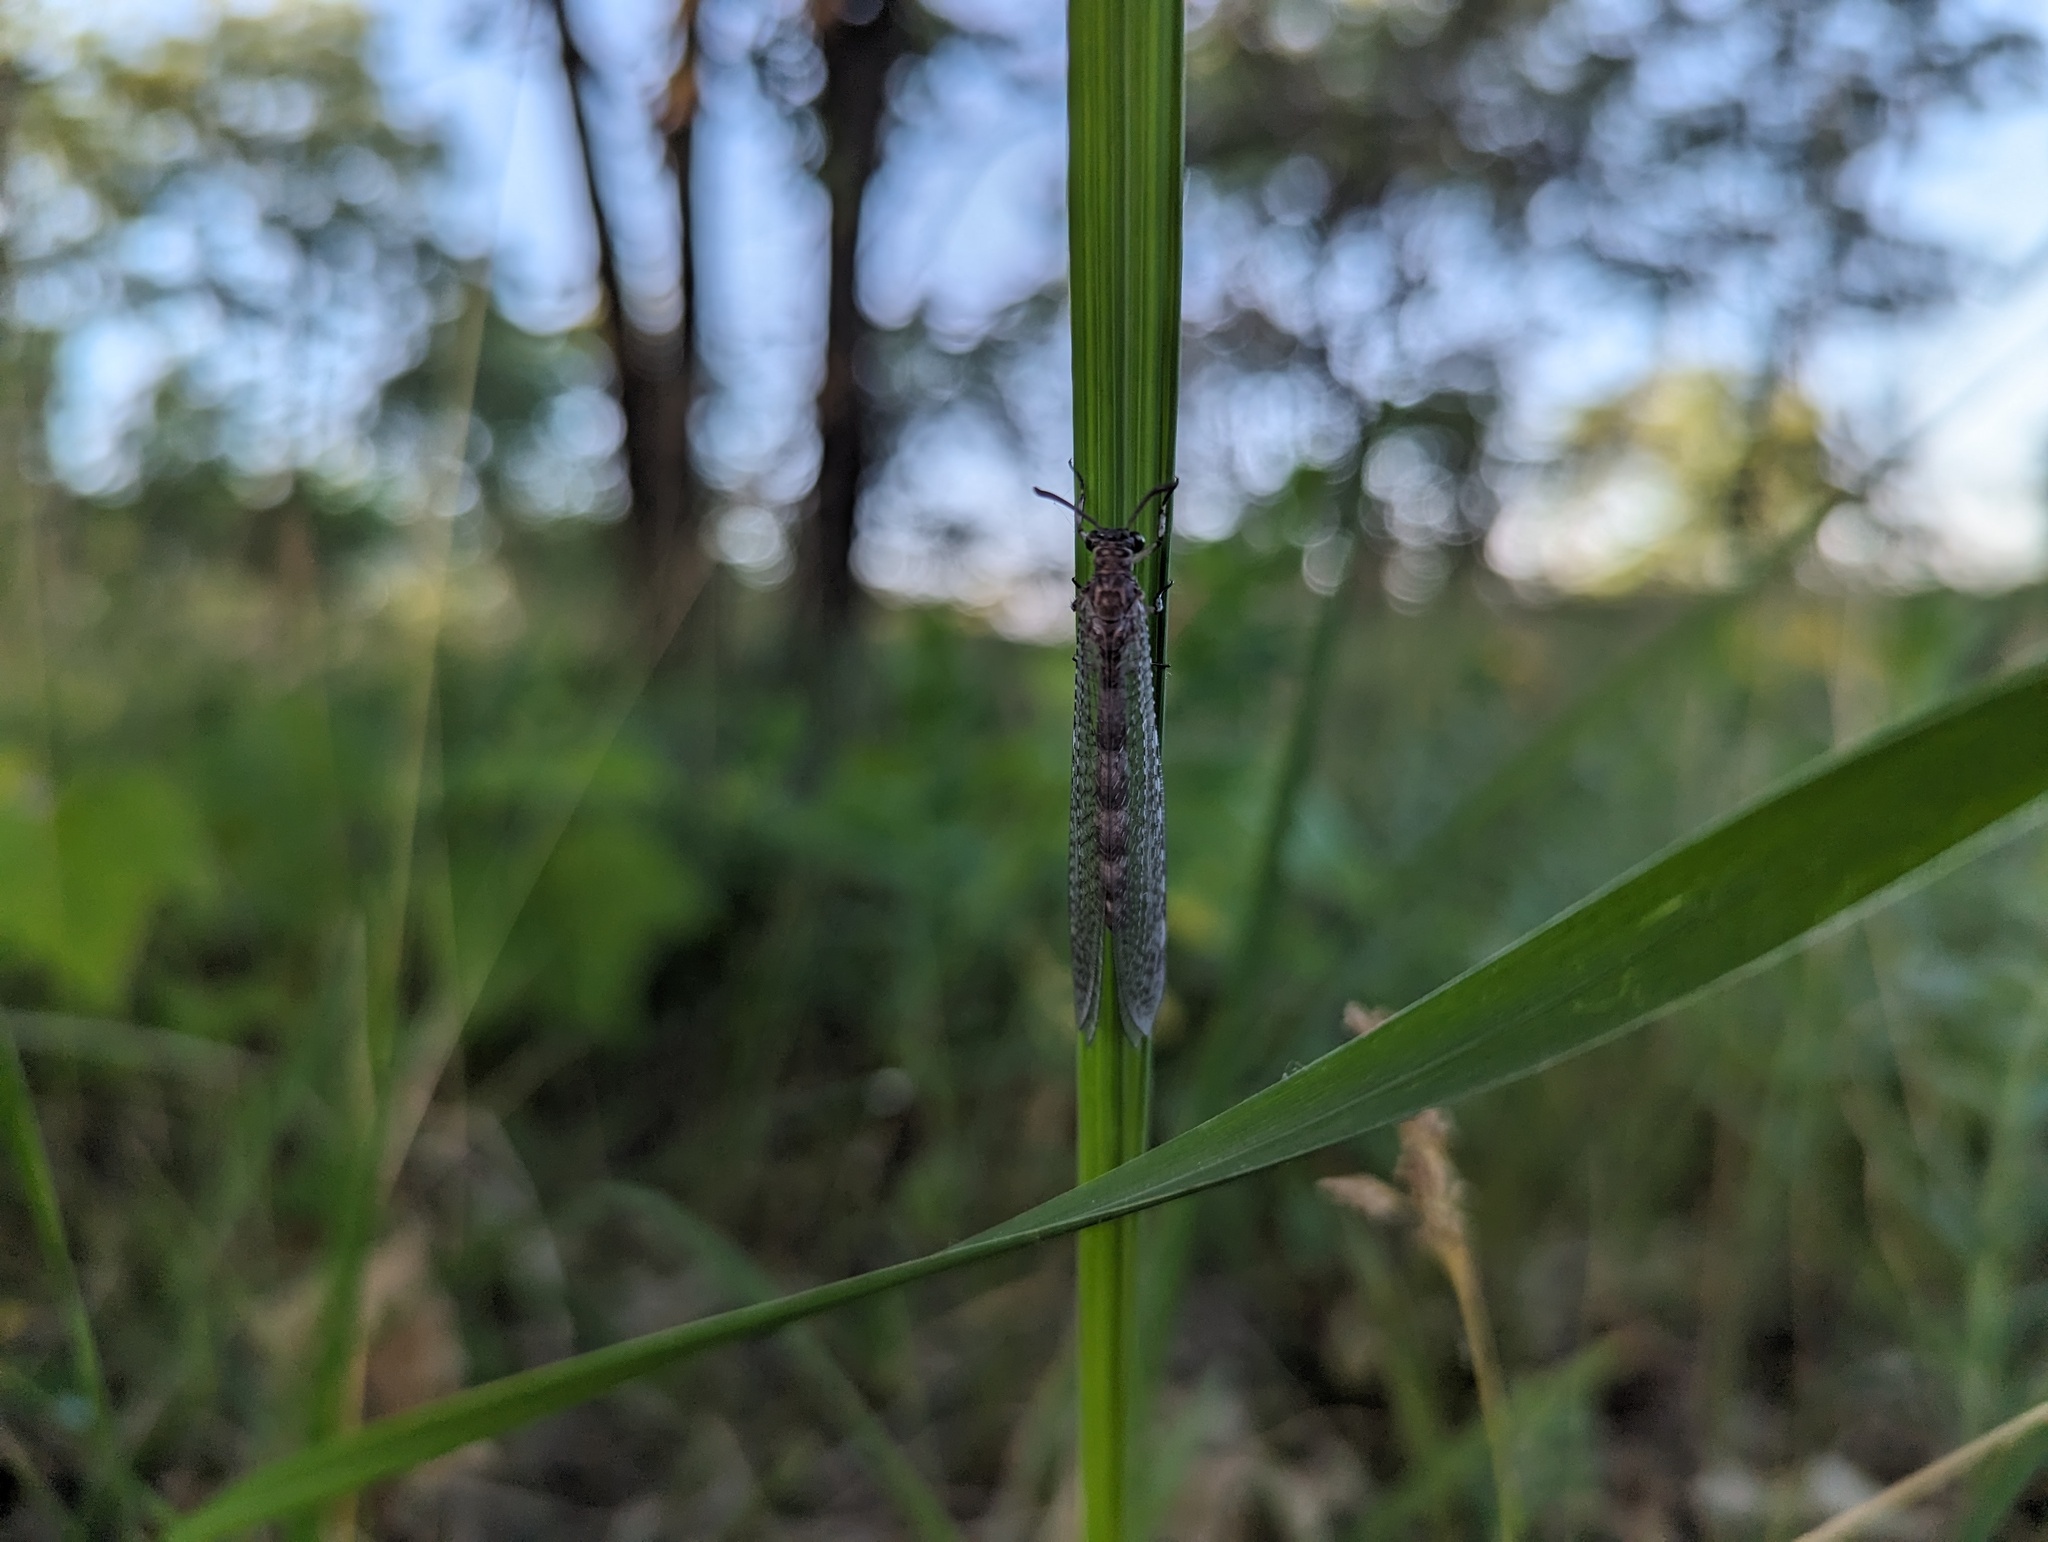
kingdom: Animalia
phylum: Arthropoda
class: Insecta
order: Neuroptera
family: Myrmeleontidae
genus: Myrmeleon
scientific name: Myrmeleon immaculatus
